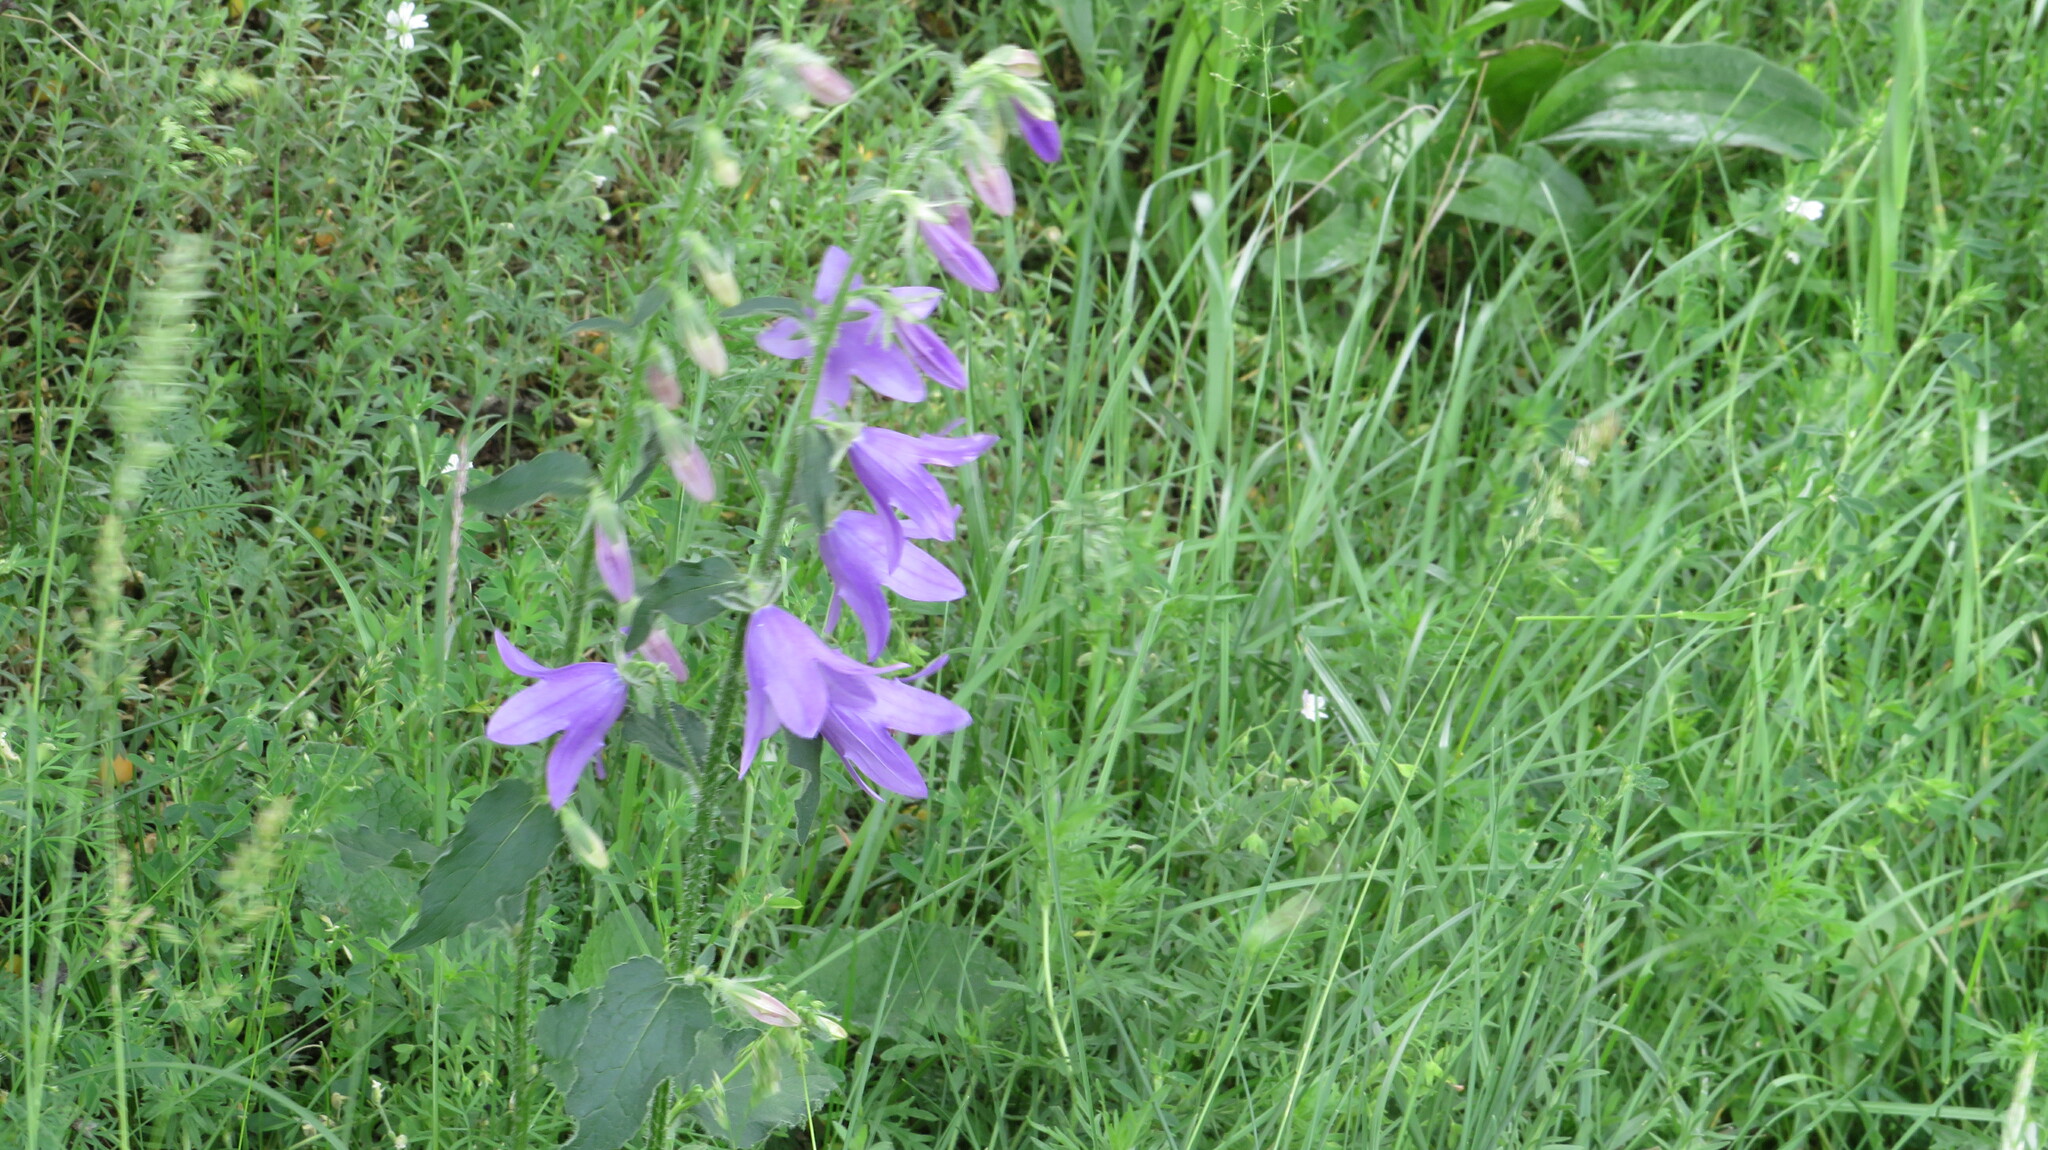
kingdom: Plantae
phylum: Tracheophyta
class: Magnoliopsida
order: Asterales
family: Campanulaceae
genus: Campanula
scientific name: Campanula rapunculoides
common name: Creeping bellflower
